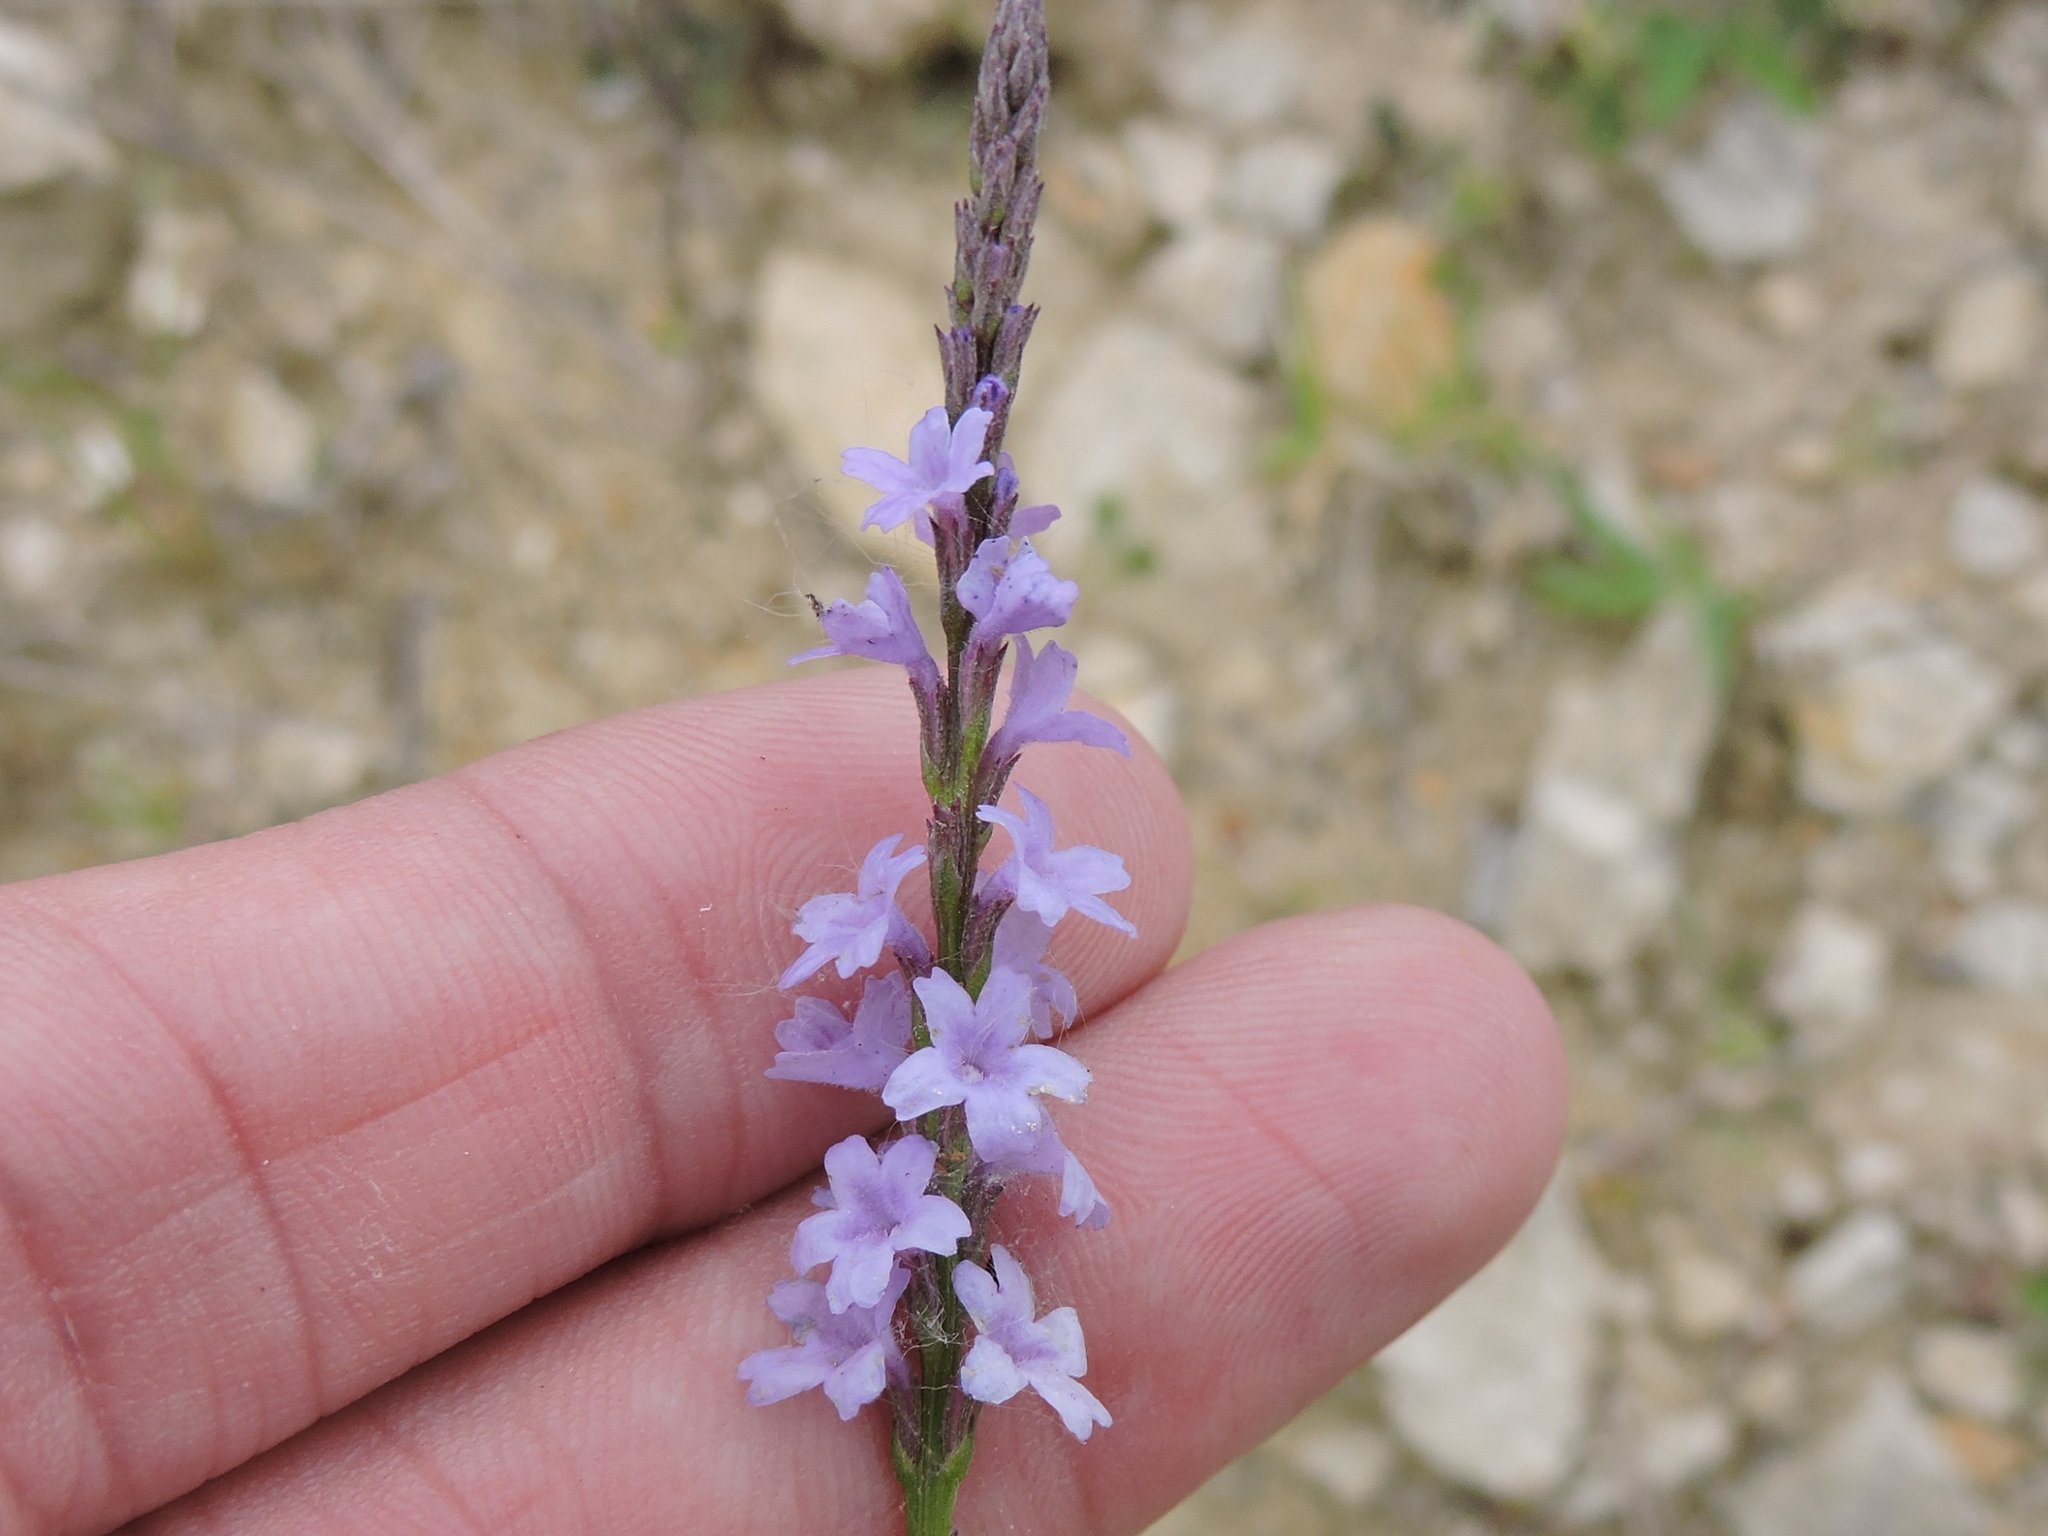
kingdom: Plantae
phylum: Tracheophyta
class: Magnoliopsida
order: Lamiales
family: Verbenaceae
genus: Verbena
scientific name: Verbena halei
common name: Texas vervain
